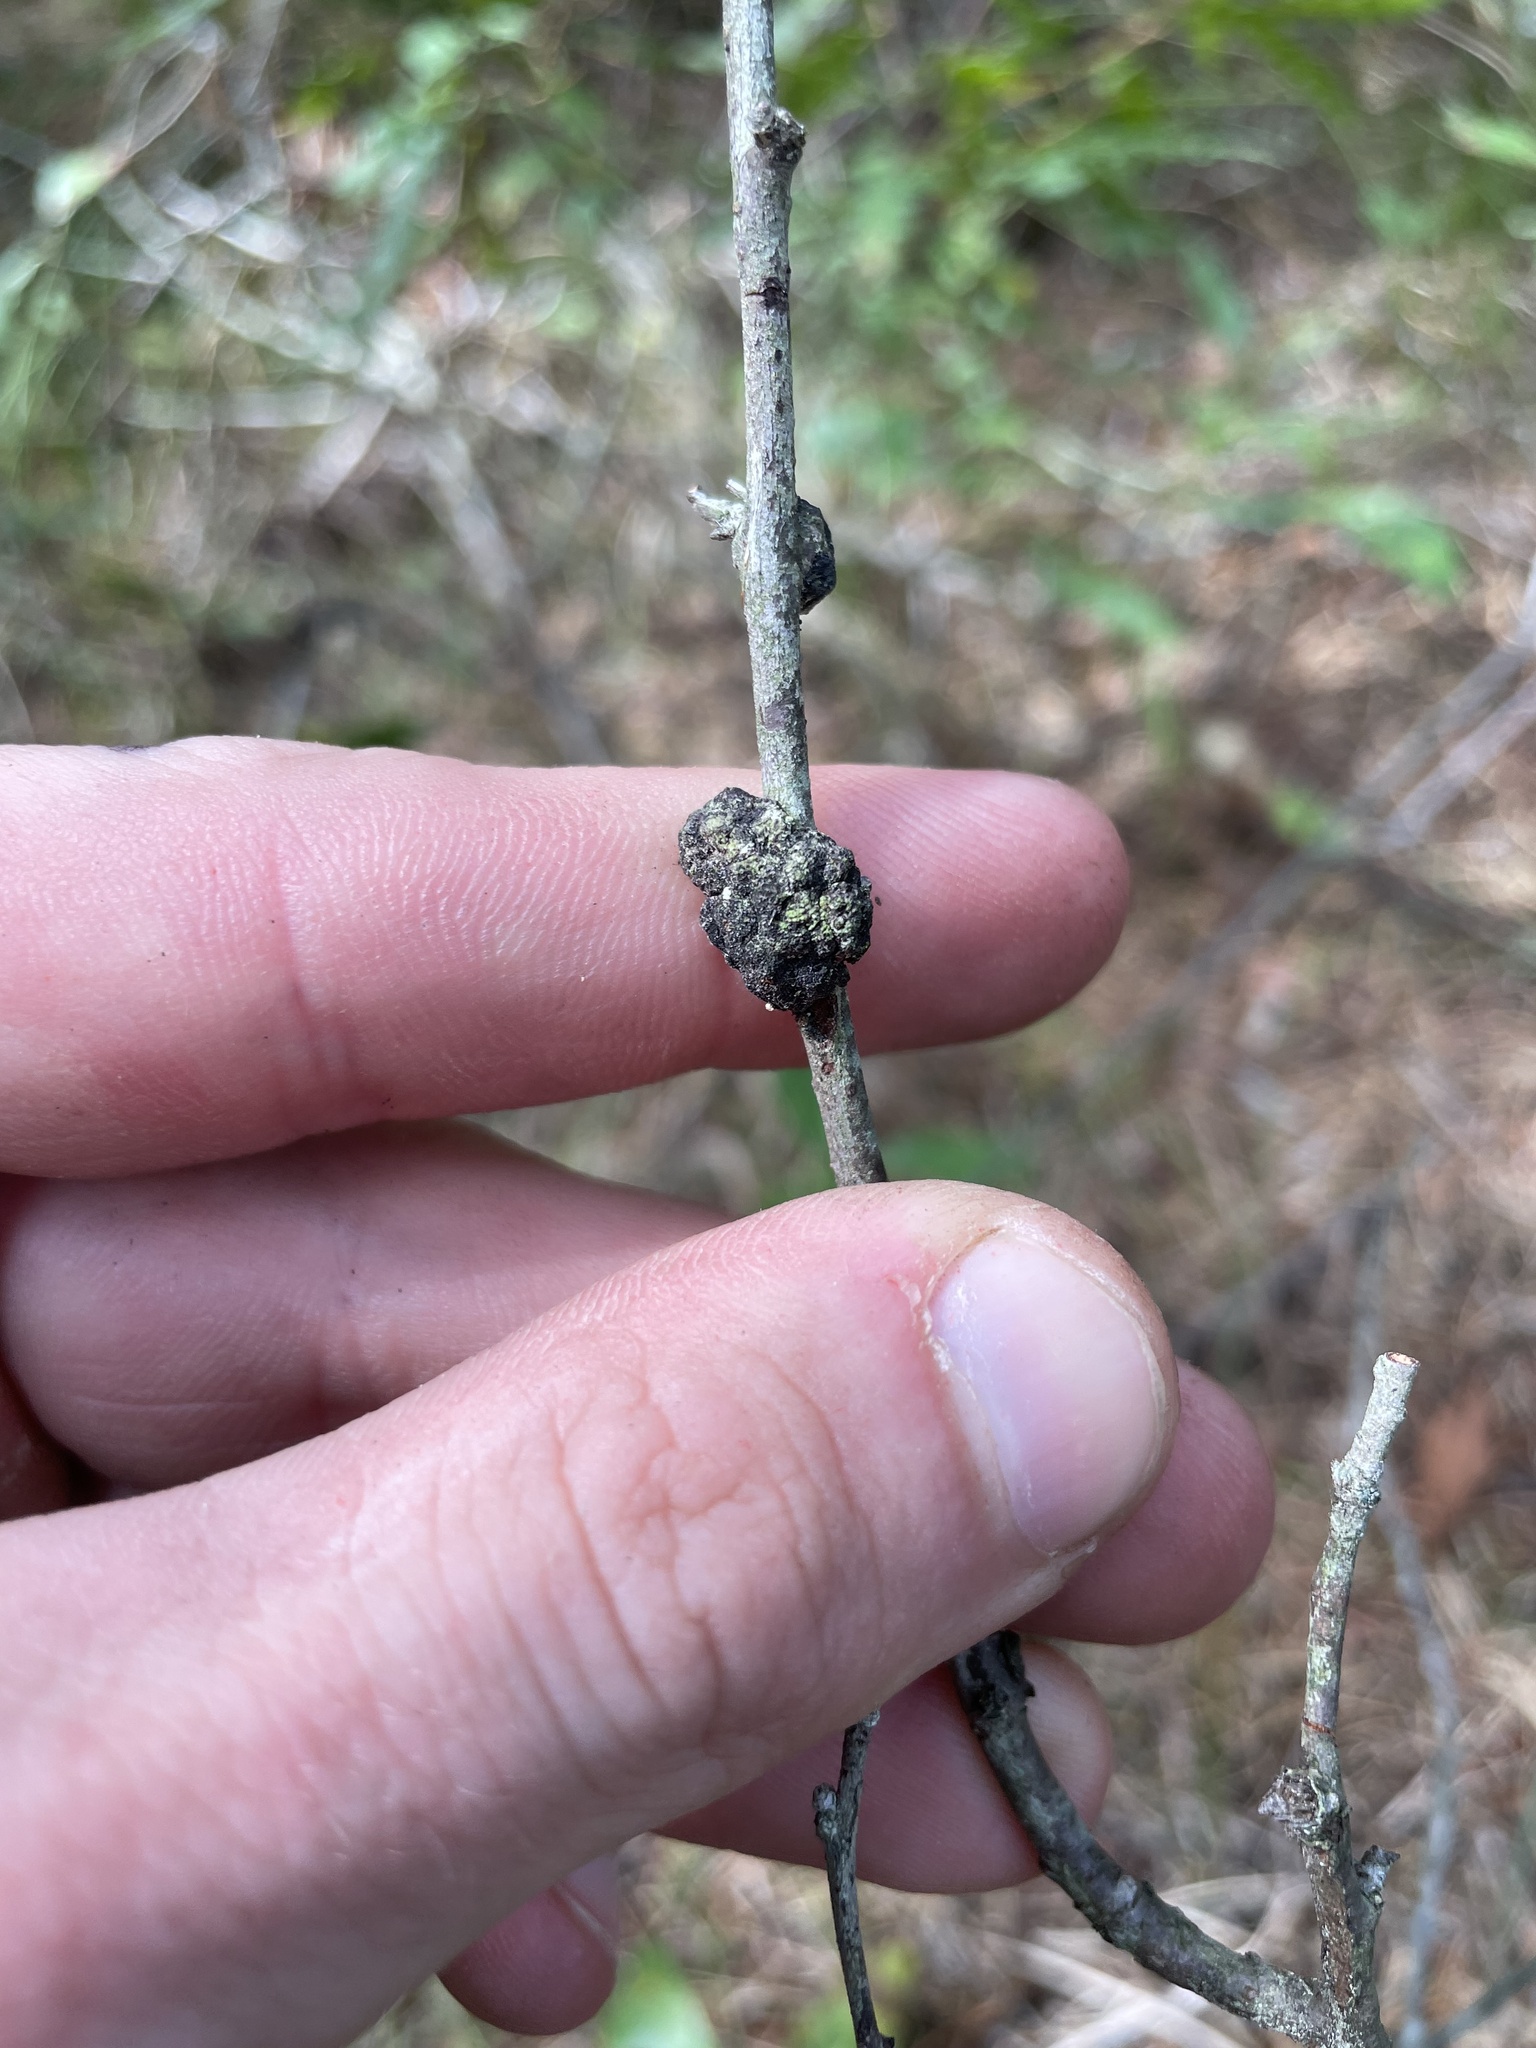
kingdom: Fungi
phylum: Ascomycota
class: Dothideomycetes
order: Venturiales
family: Venturiaceae
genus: Apiosporina
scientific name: Apiosporina morbosa
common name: Black knot
